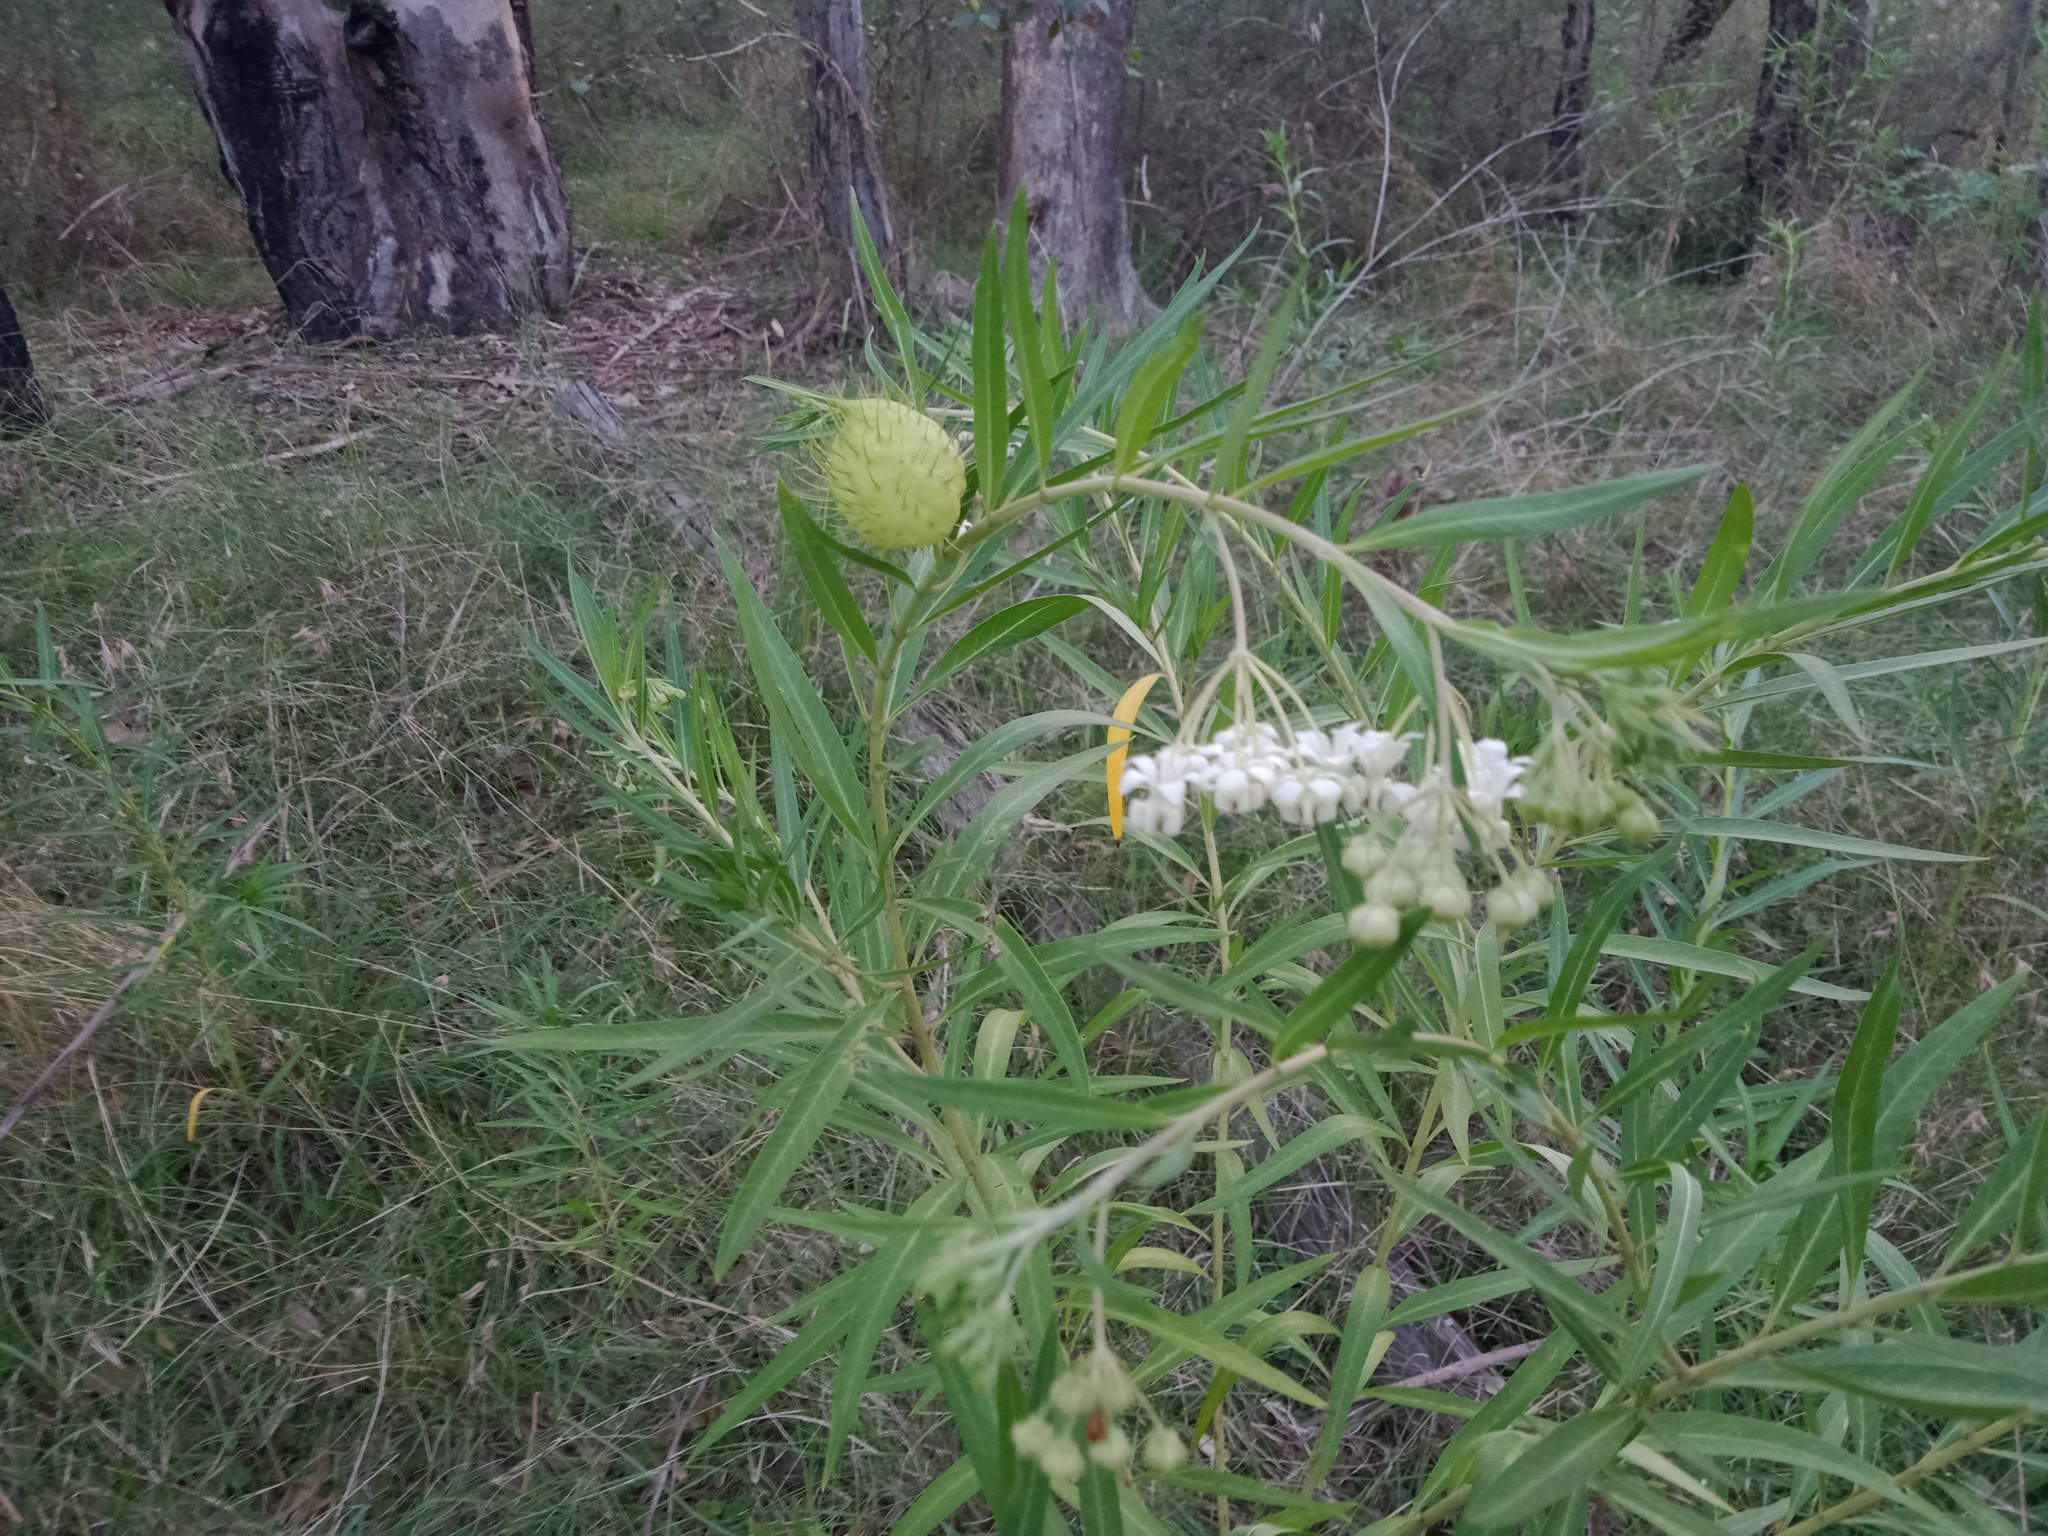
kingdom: Plantae
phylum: Tracheophyta
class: Magnoliopsida
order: Gentianales
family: Apocynaceae
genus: Gomphocarpus
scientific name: Gomphocarpus fruticosus
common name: Milkweed
